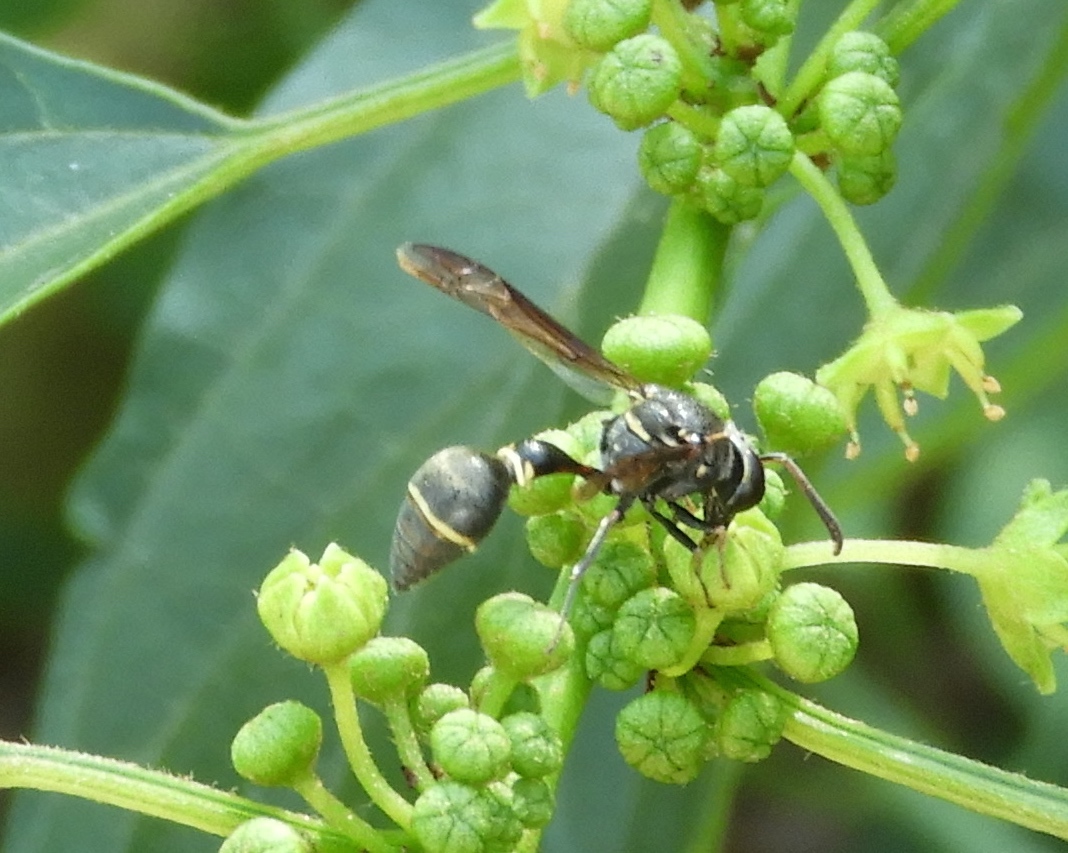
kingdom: Animalia
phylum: Arthropoda
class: Insecta
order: Hymenoptera
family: Eumenidae
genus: Minixi
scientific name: Minixi mexicanum
